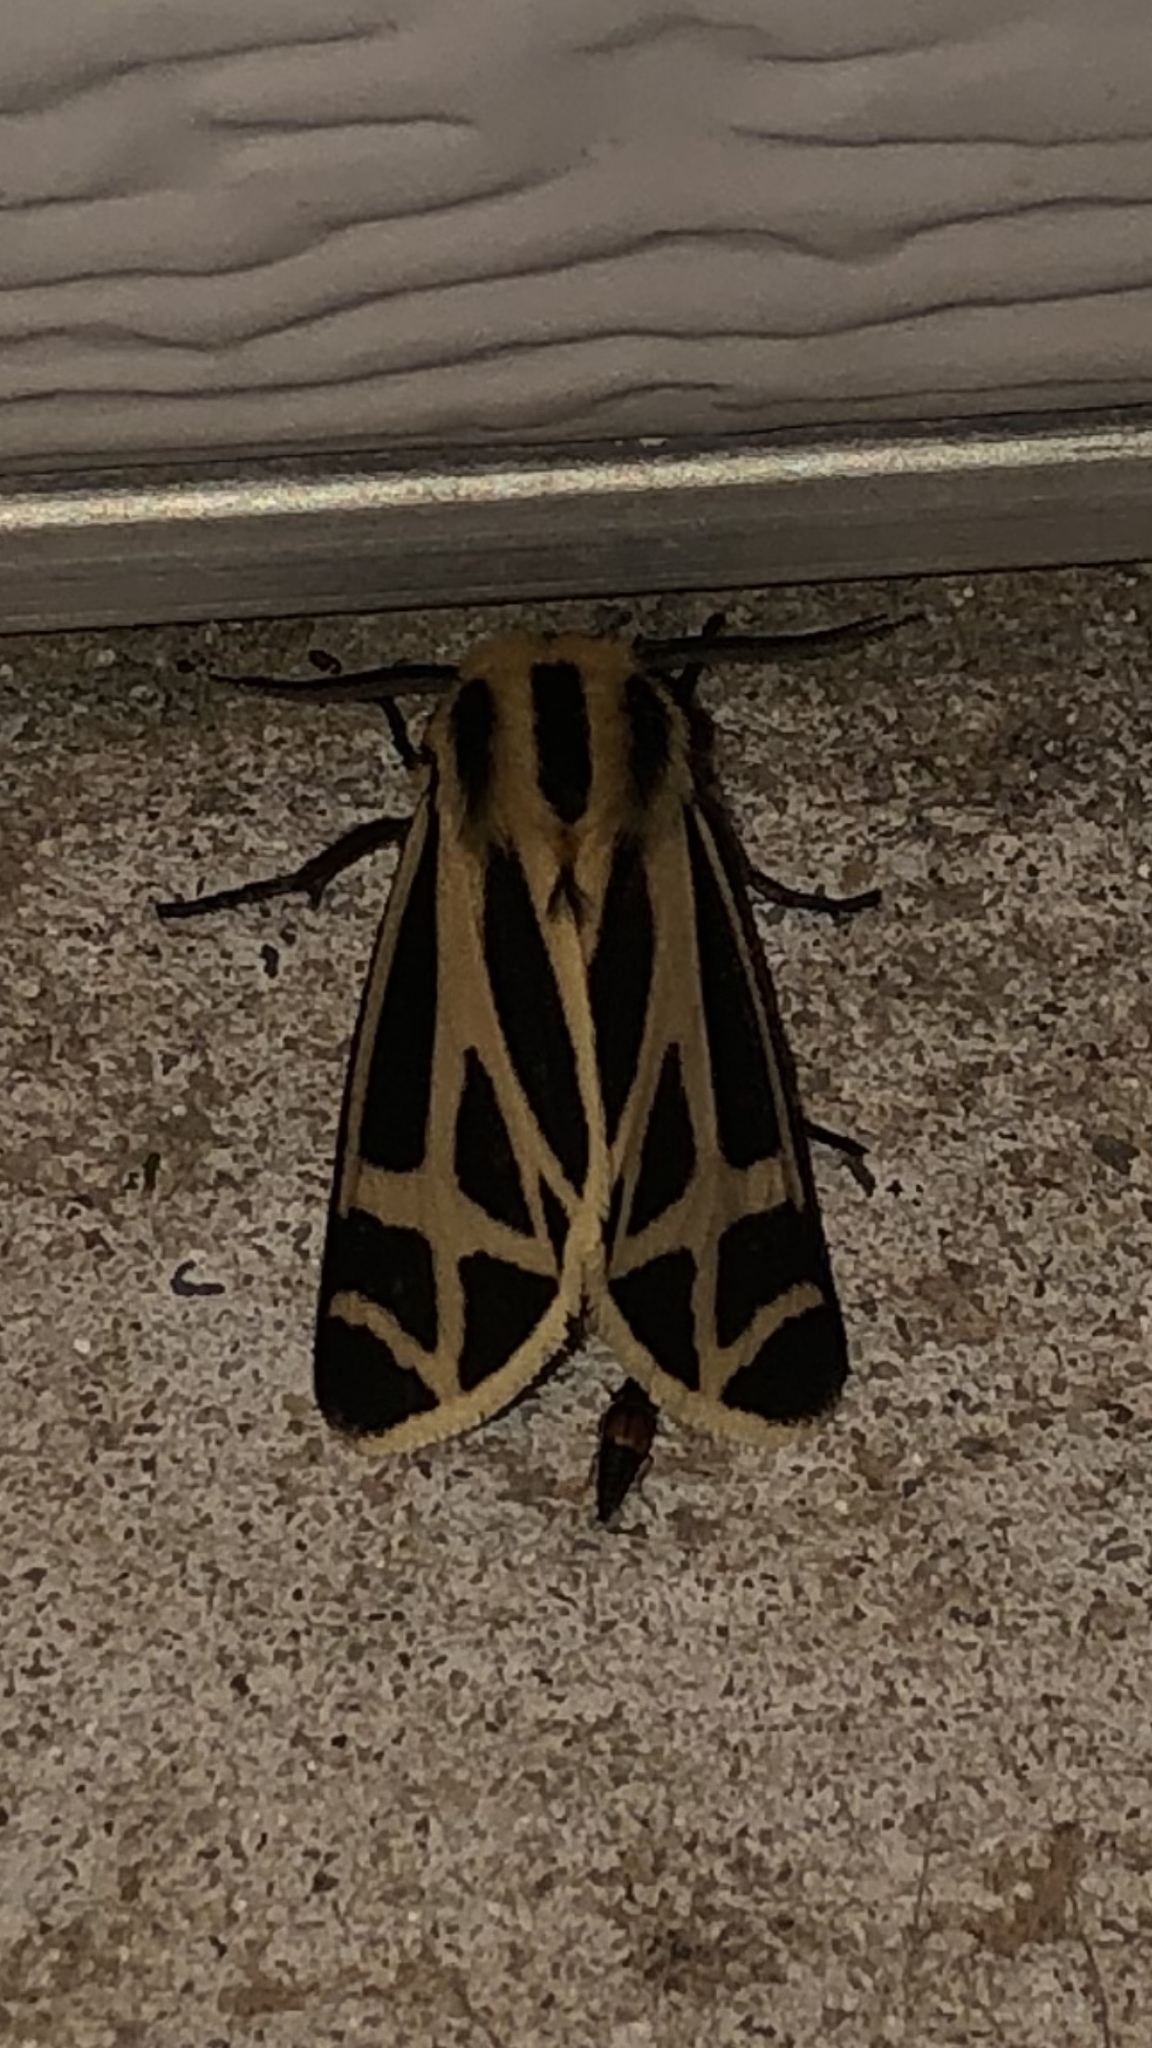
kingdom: Animalia
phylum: Arthropoda
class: Insecta
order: Lepidoptera
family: Erebidae
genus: Apantesis
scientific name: Apantesis phalerata
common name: Harnessed tiger moth
